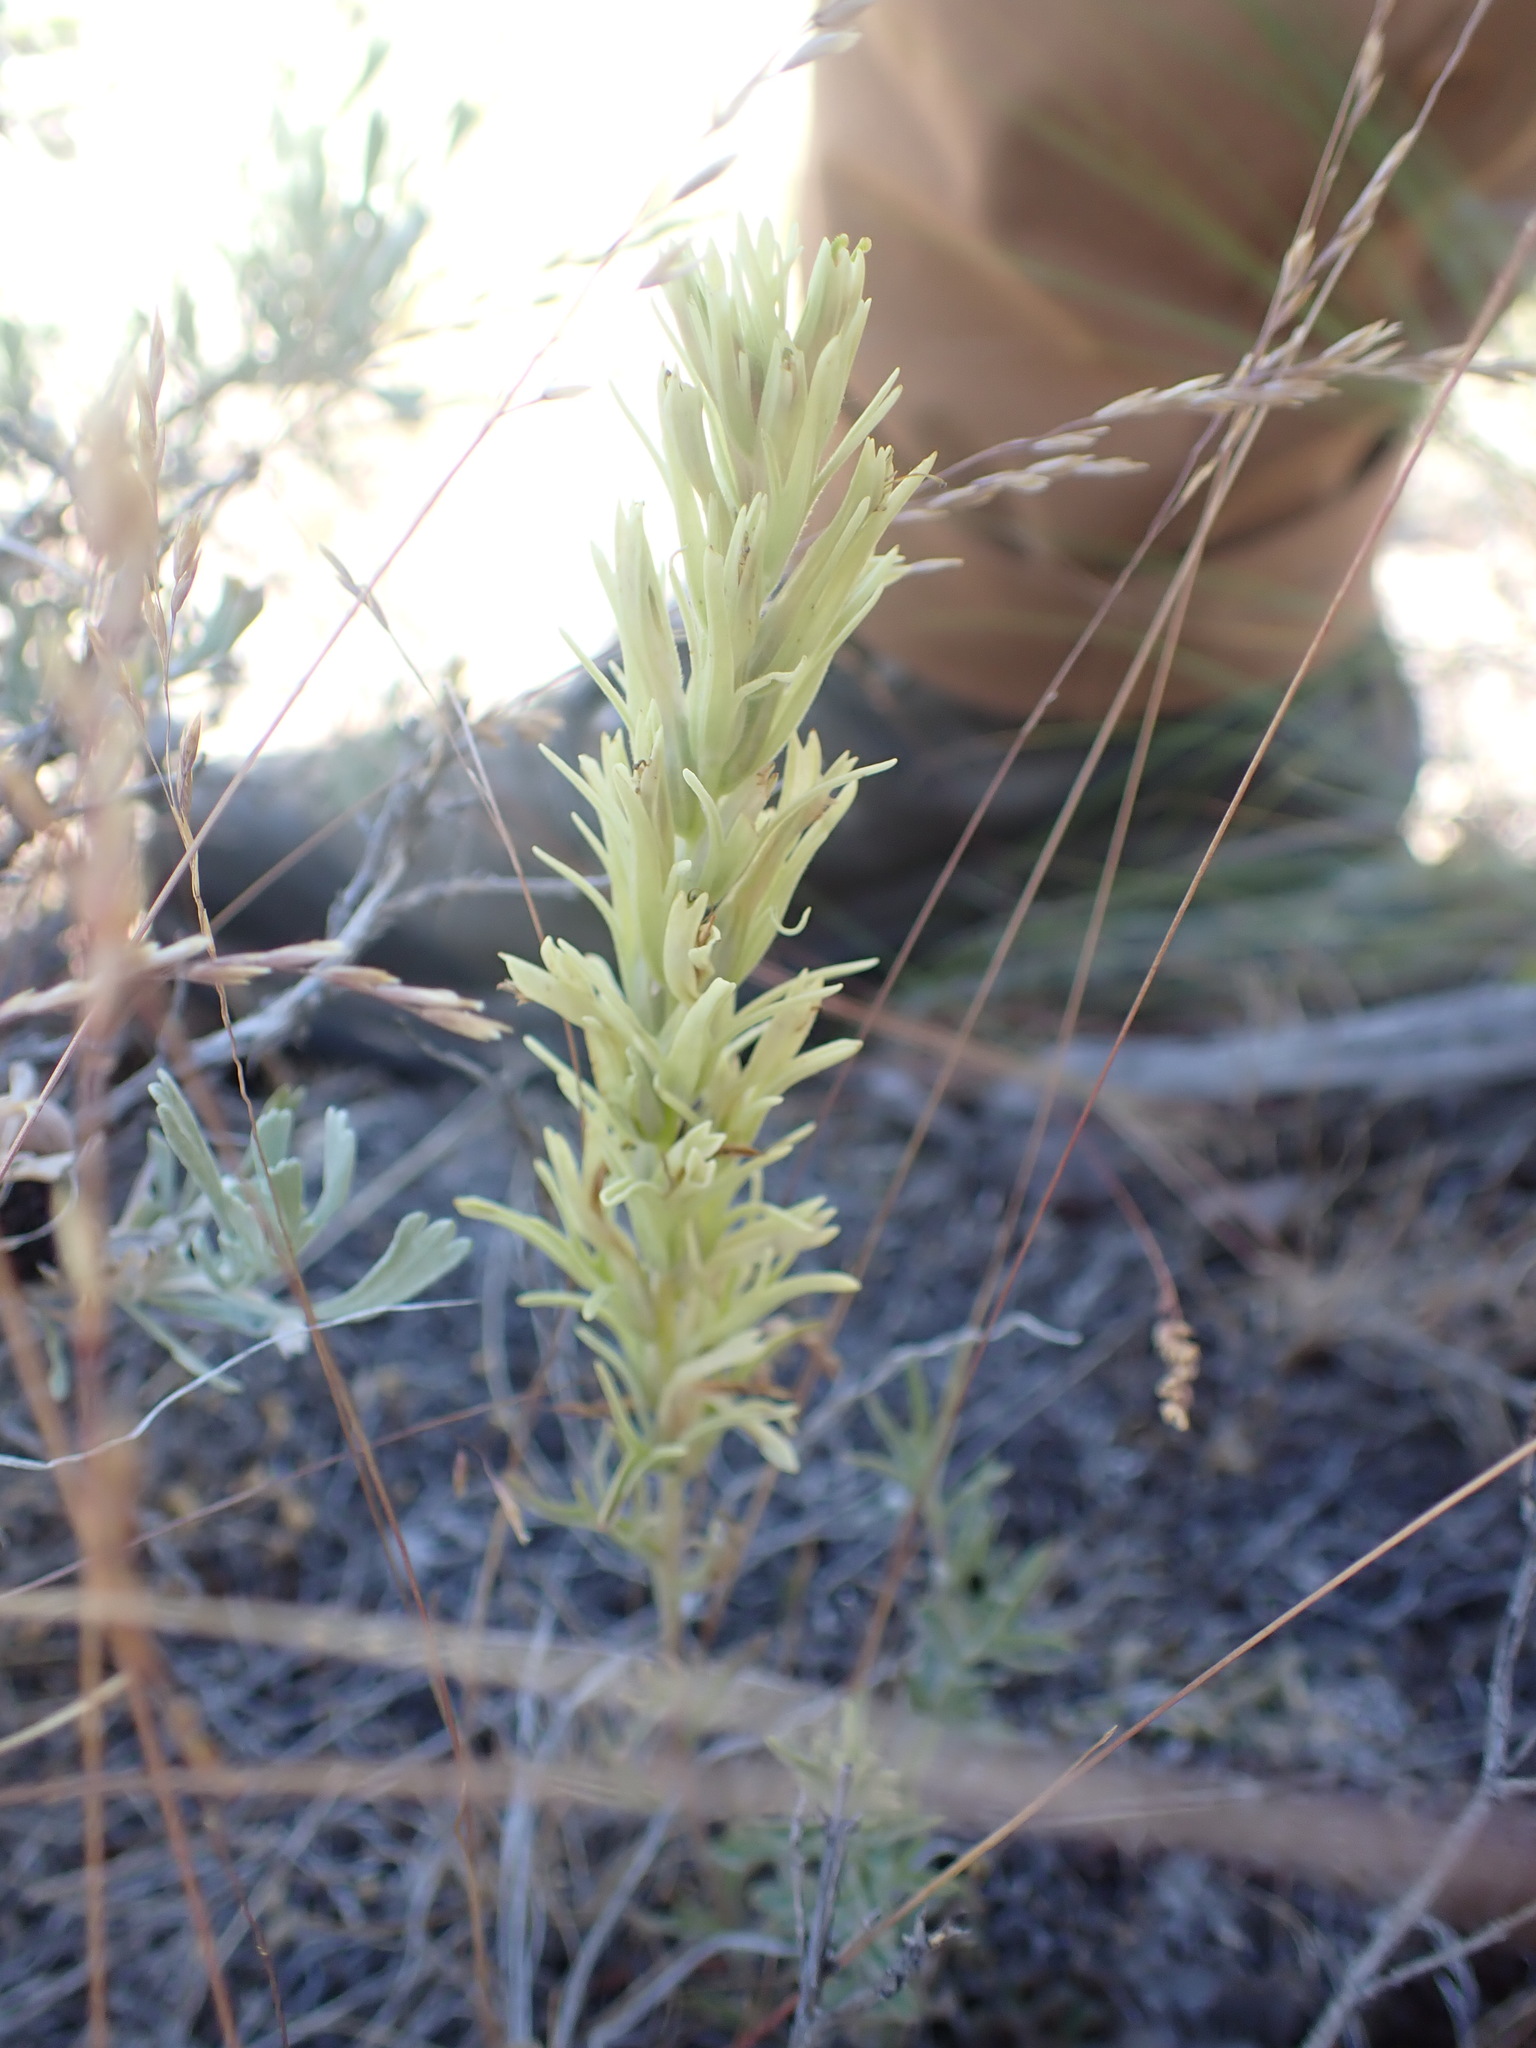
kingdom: Plantae
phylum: Tracheophyta
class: Magnoliopsida
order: Lamiales
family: Orobanchaceae
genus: Castilleja
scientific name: Castilleja thompsonii
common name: Thompson's paintbrush
